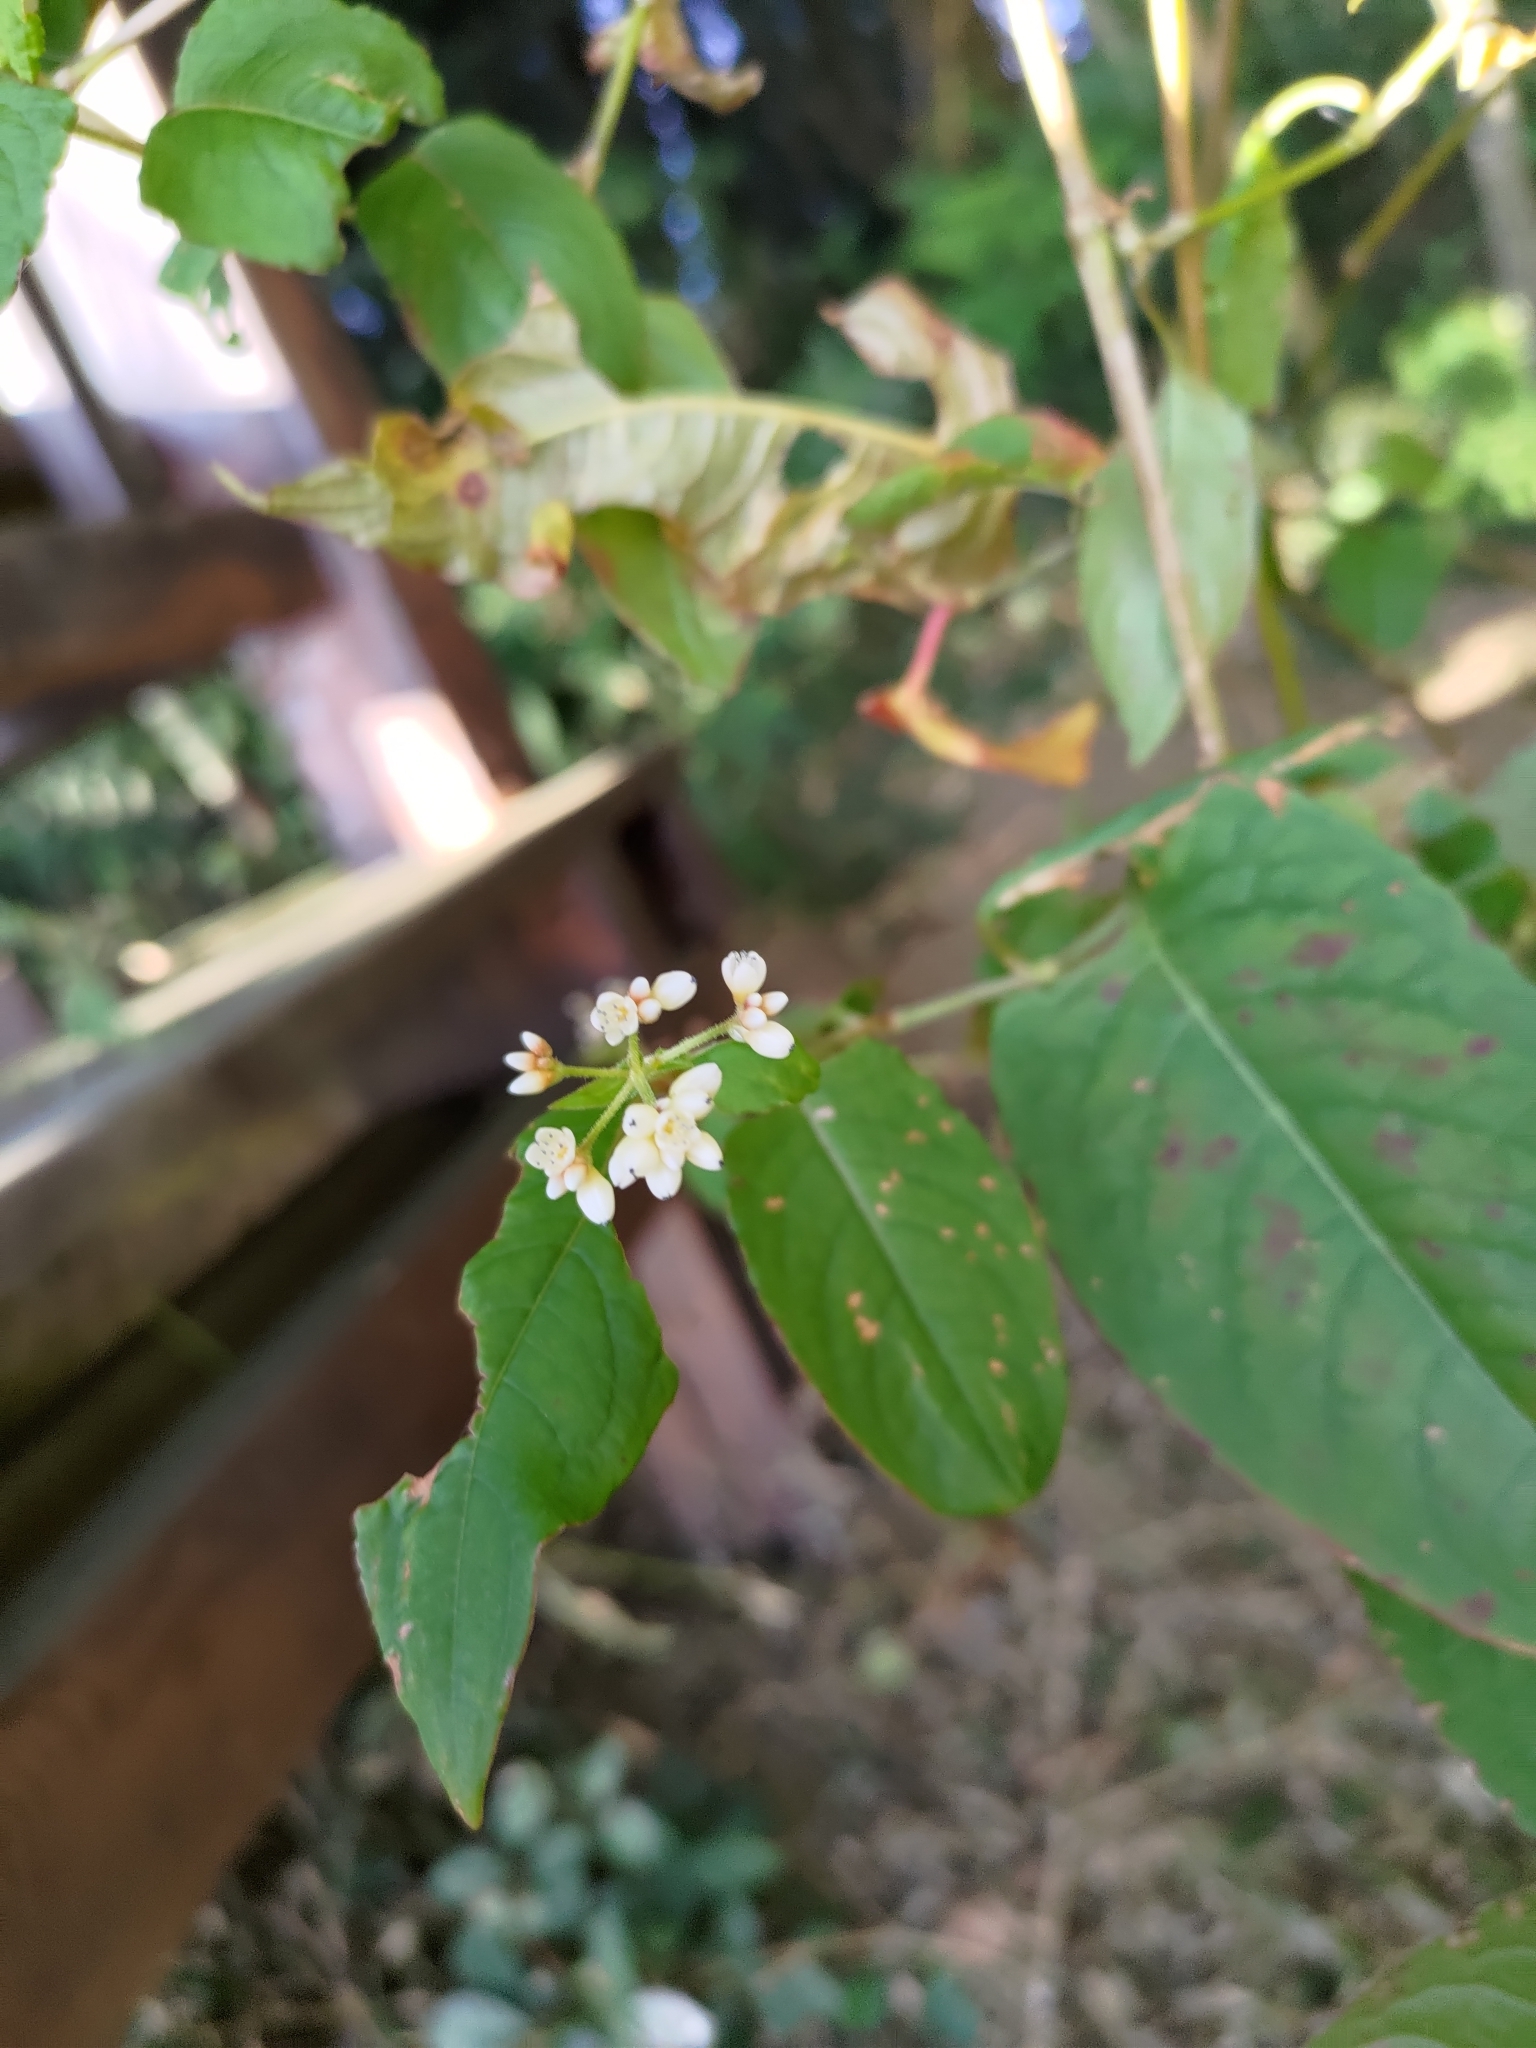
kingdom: Plantae
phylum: Tracheophyta
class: Magnoliopsida
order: Caryophyllales
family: Polygonaceae
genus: Persicaria
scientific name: Persicaria chinensis
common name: Chinese knotweed
